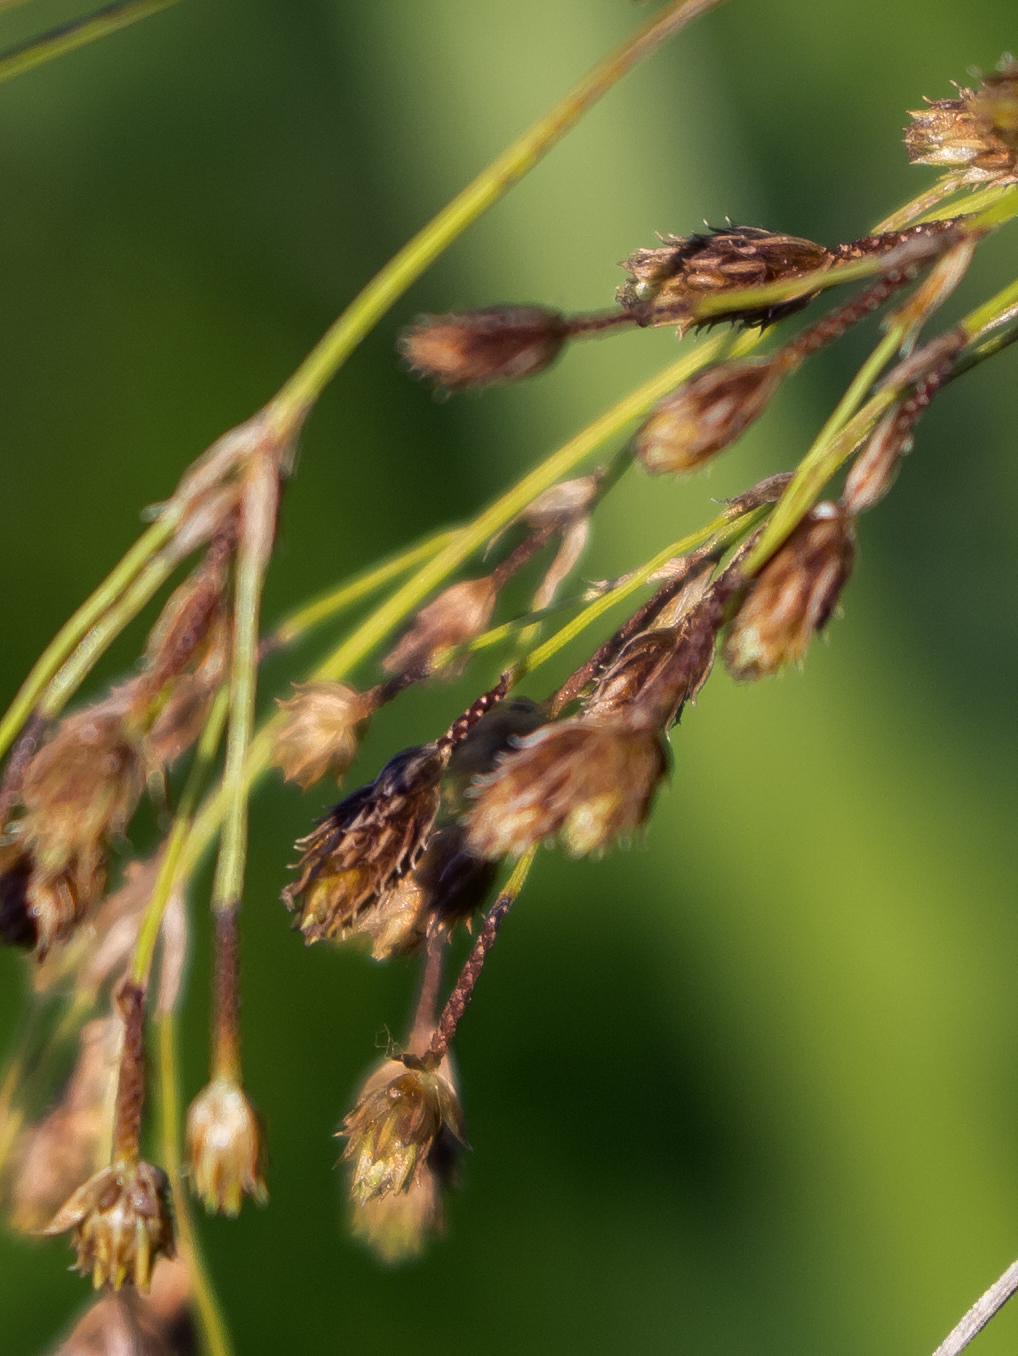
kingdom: Plantae
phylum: Tracheophyta
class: Liliopsida
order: Poales
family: Cyperaceae
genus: Scirpus
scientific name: Scirpus pendulus
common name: Nodding bulrush
